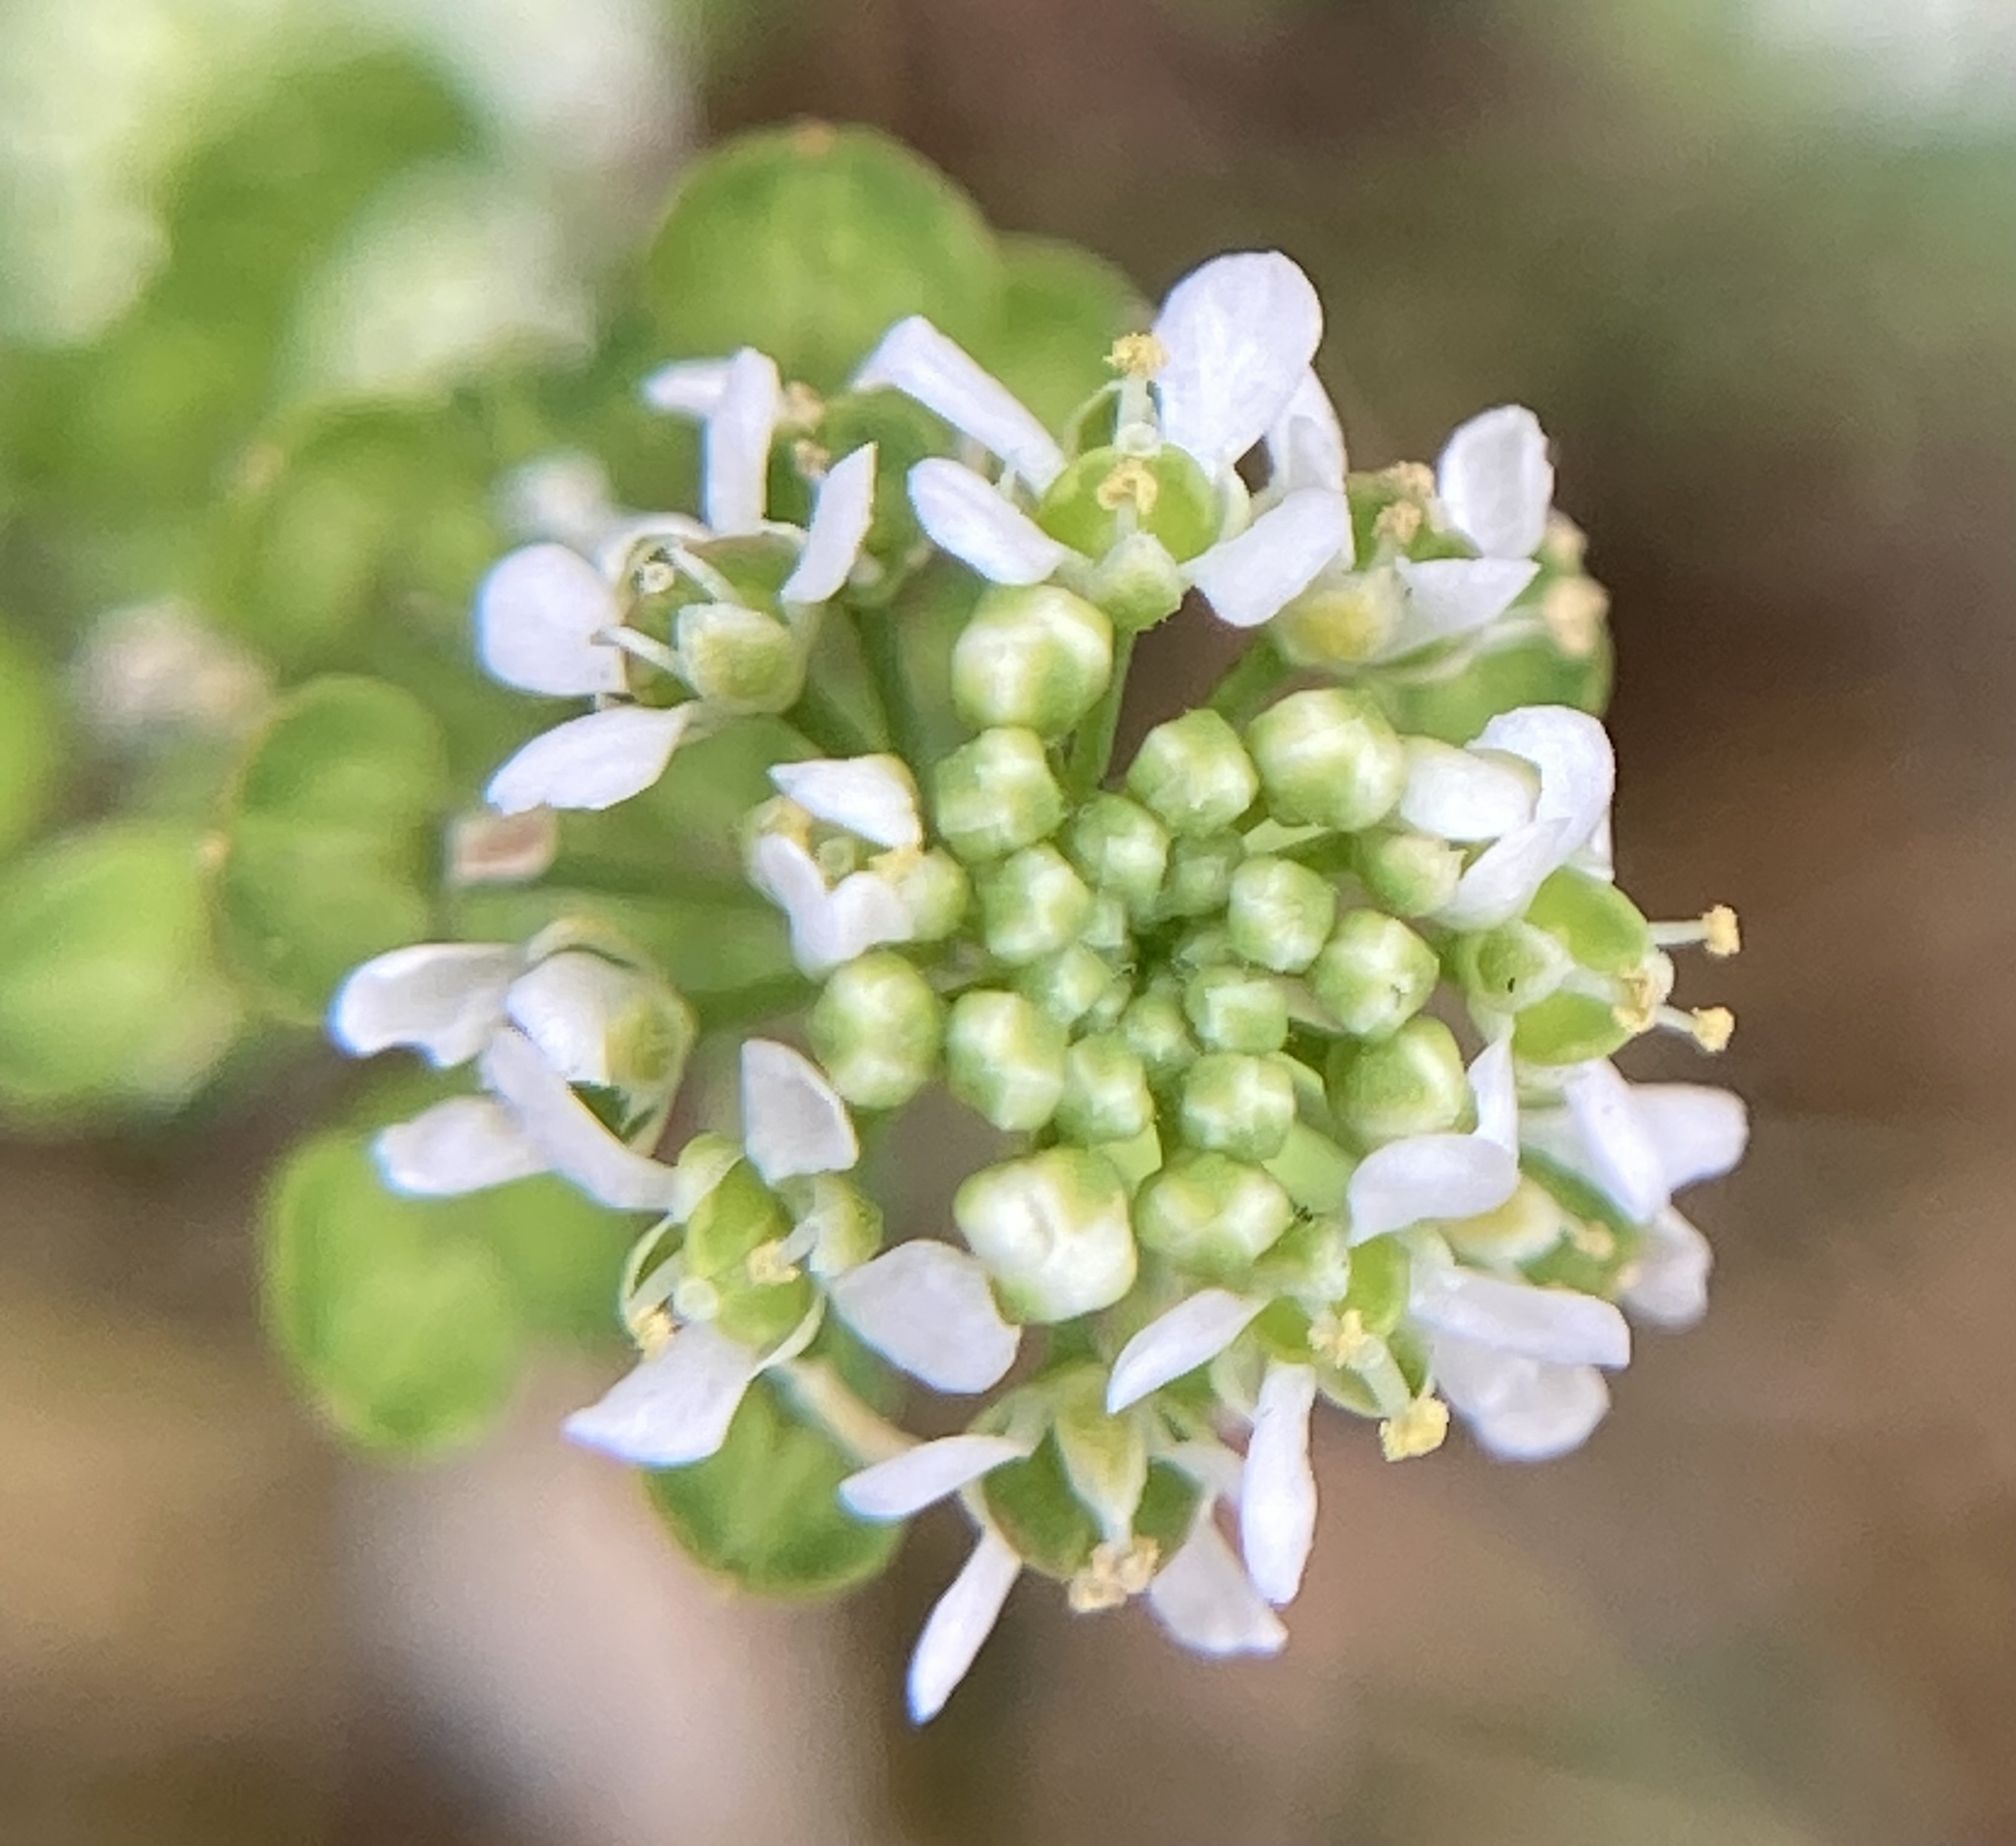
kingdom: Plantae
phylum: Tracheophyta
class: Magnoliopsida
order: Brassicales
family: Brassicaceae
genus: Lepidium
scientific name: Lepidium virginicum
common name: Least pepperwort
